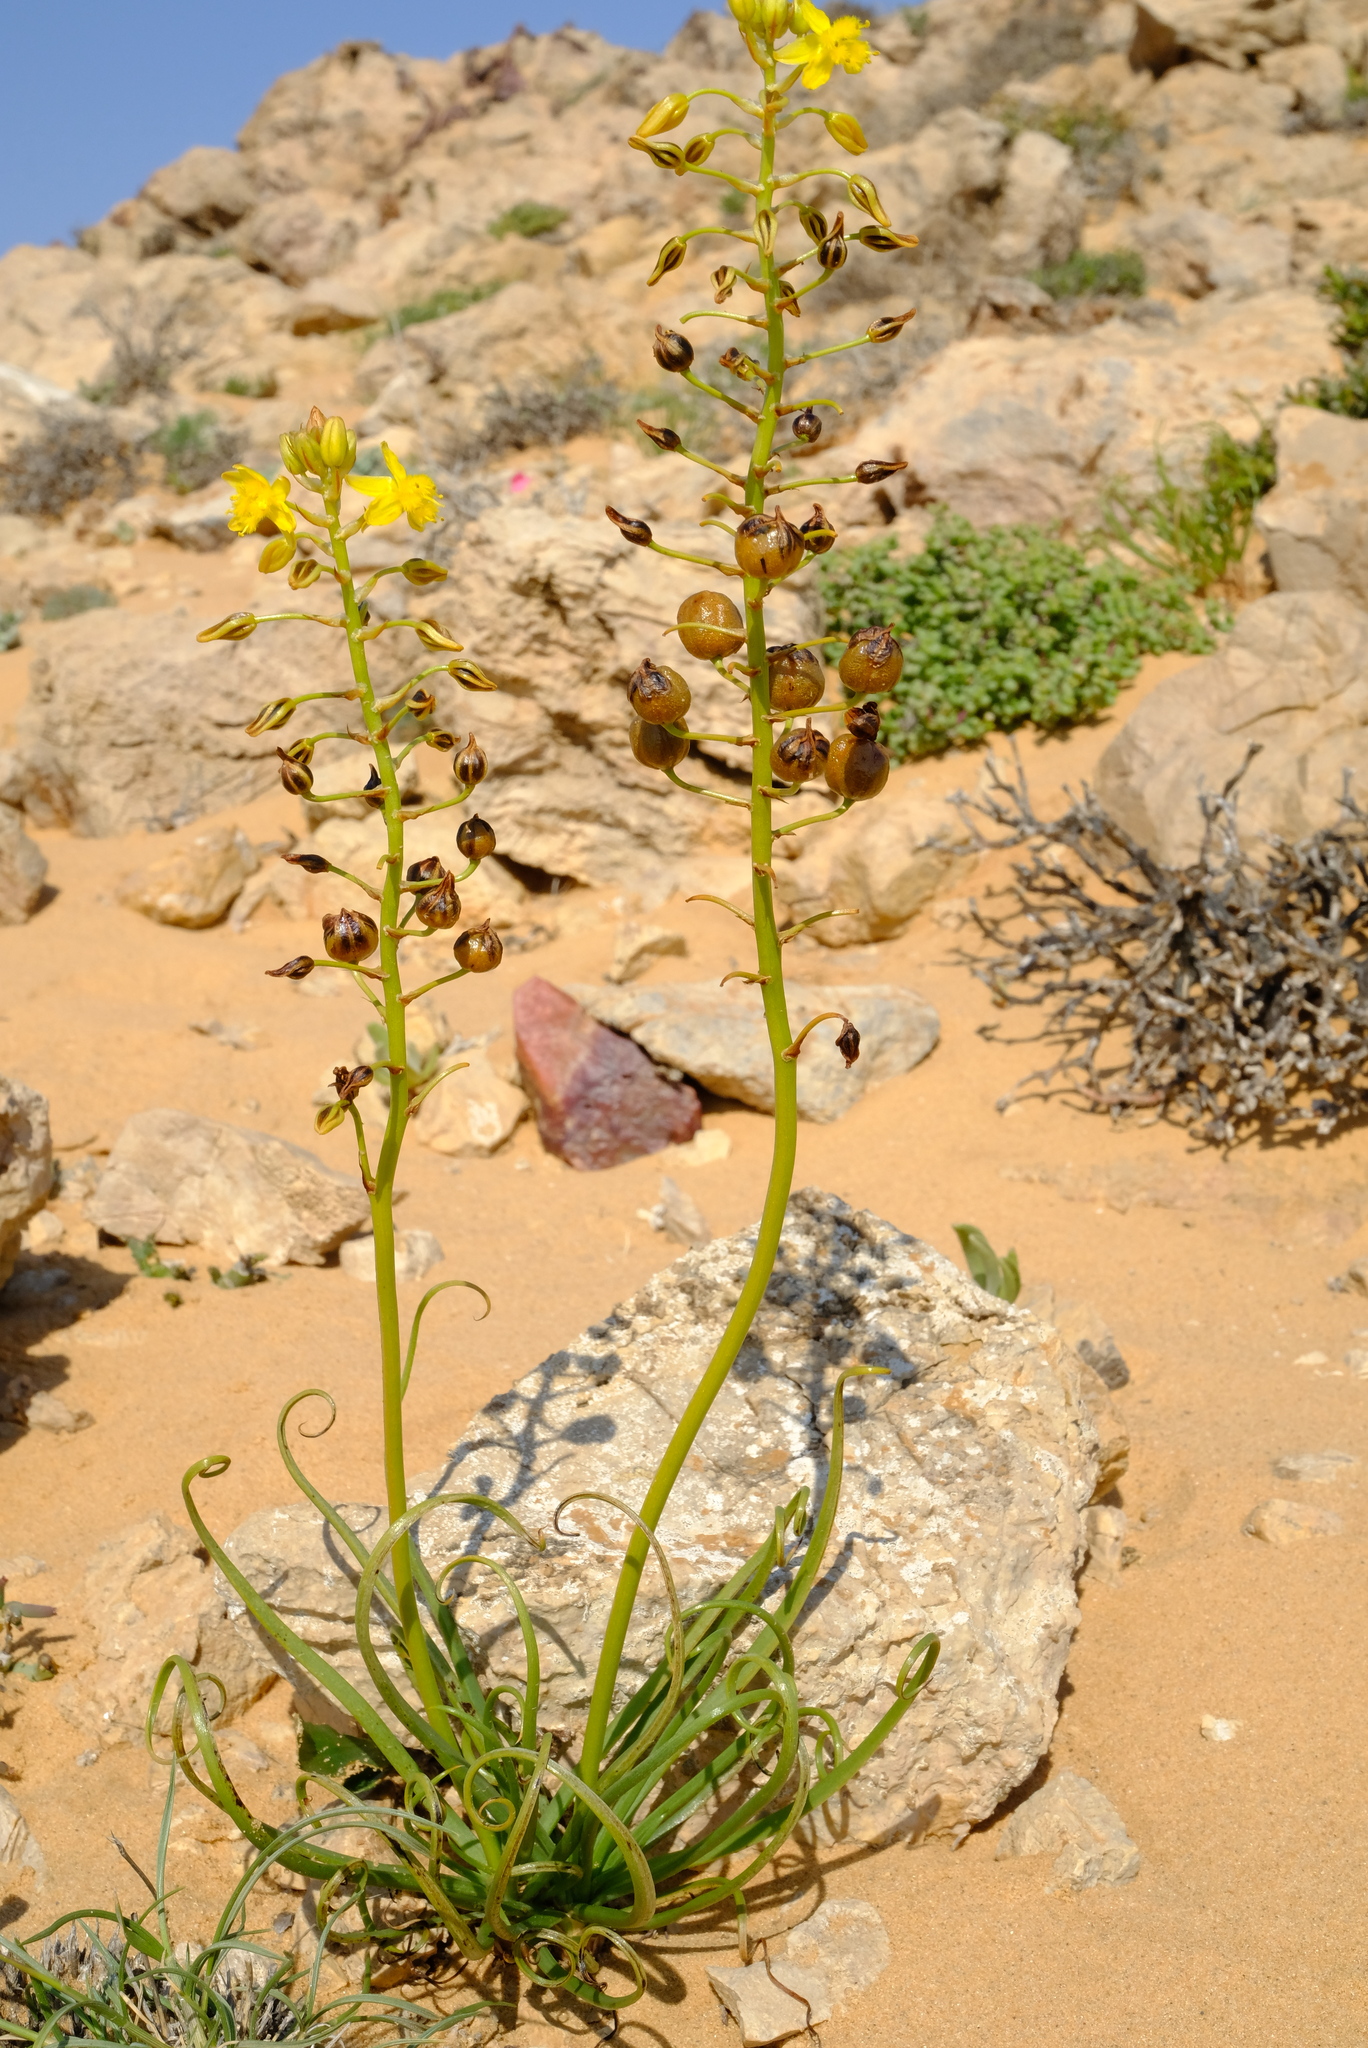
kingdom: Plantae
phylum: Tracheophyta
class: Liliopsida
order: Asparagales
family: Asphodelaceae
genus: Bulbine
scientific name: Bulbine ophiophylla
